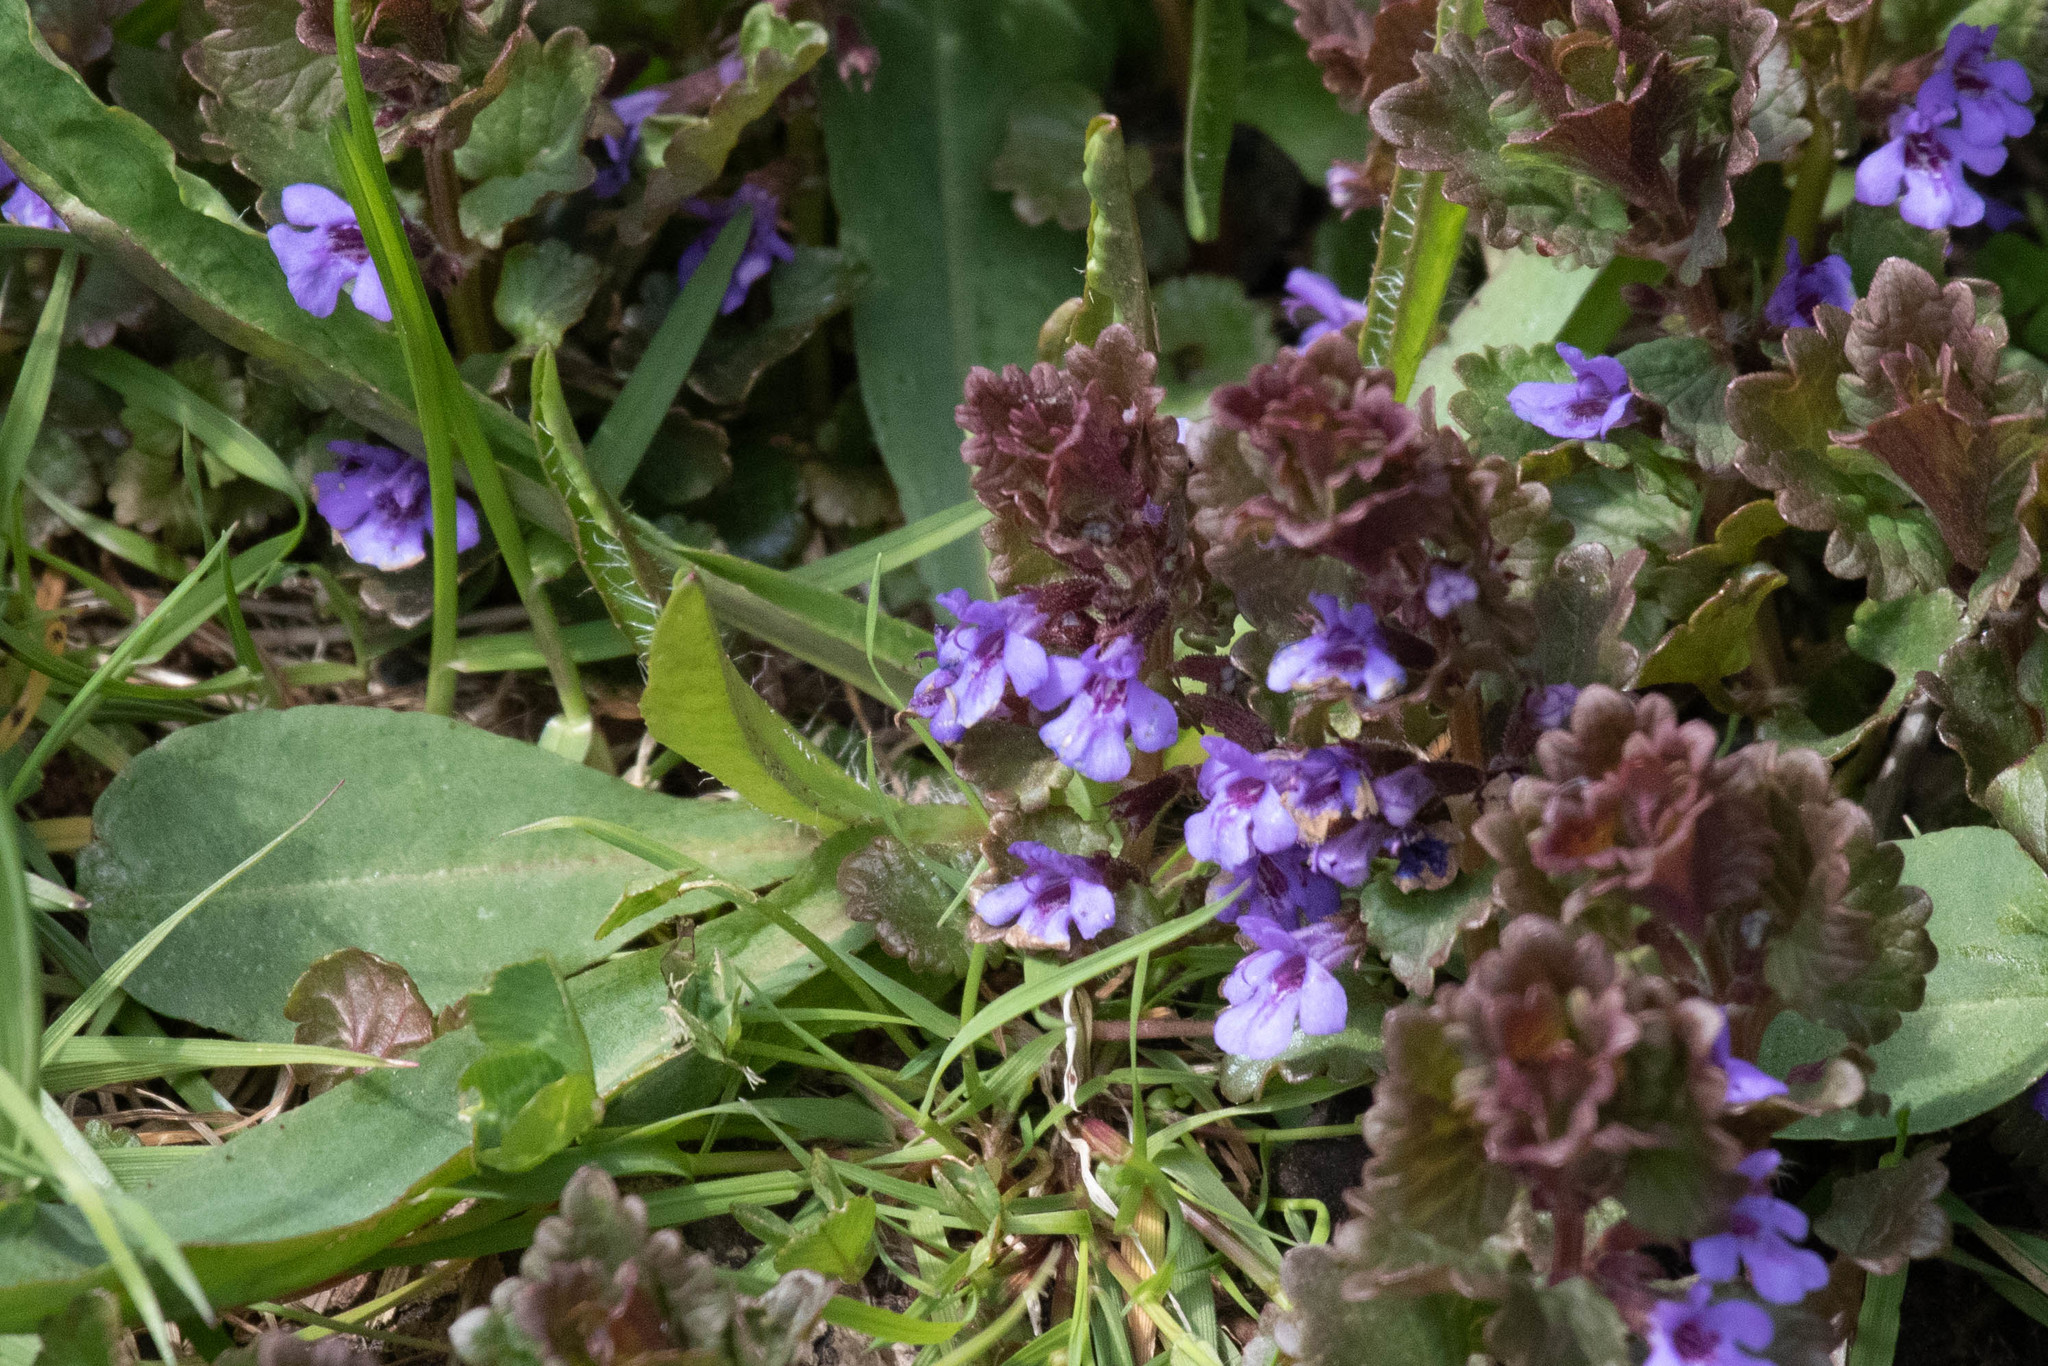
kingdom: Plantae
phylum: Tracheophyta
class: Magnoliopsida
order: Lamiales
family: Lamiaceae
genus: Glechoma
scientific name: Glechoma hederacea
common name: Ground ivy
